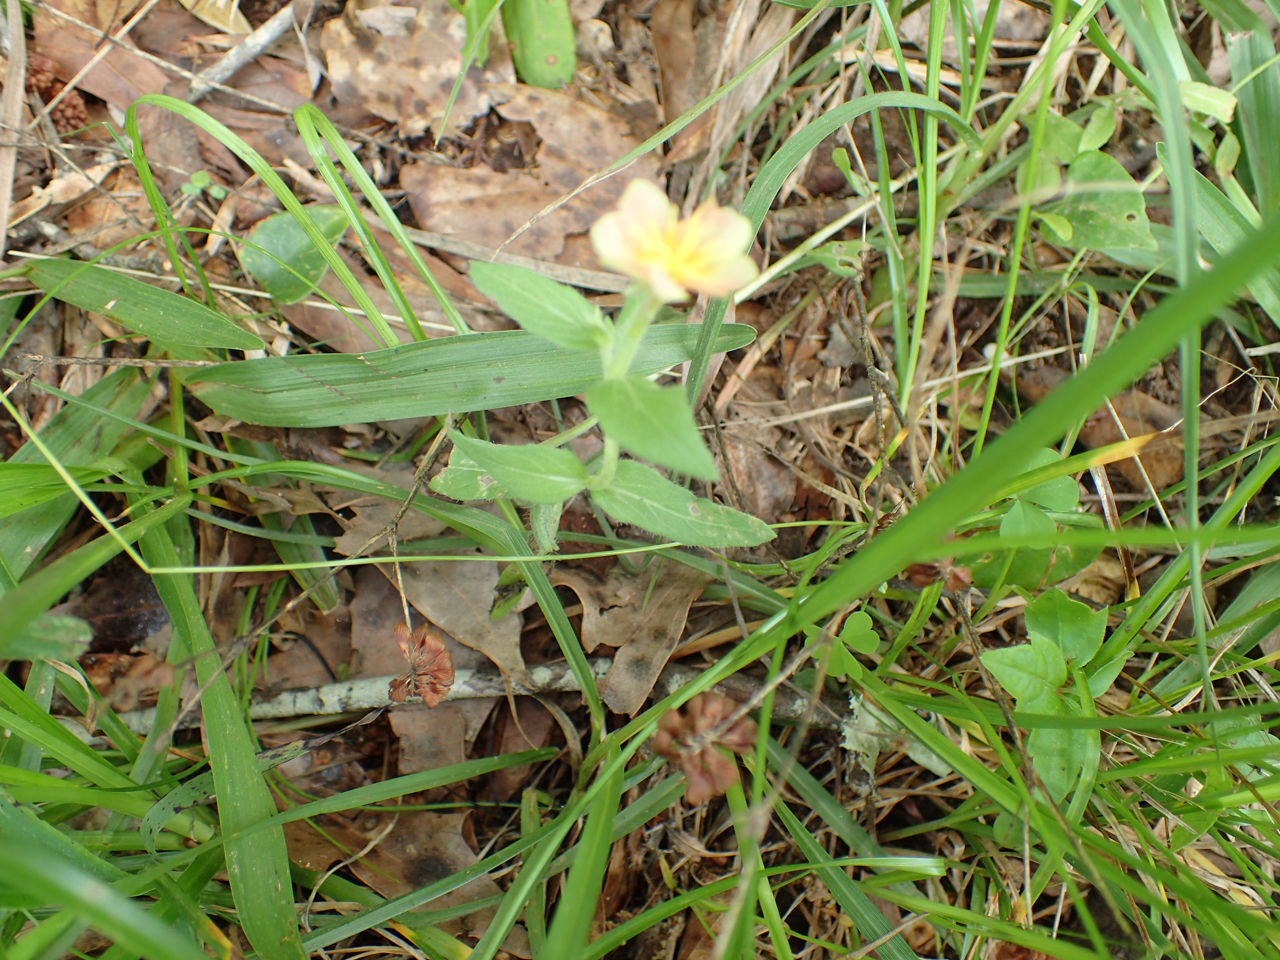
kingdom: Plantae
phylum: Tracheophyta
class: Magnoliopsida
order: Myrtales
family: Onagraceae
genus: Oenothera
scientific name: Oenothera laciniata
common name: Cut-leaved evening-primrose
